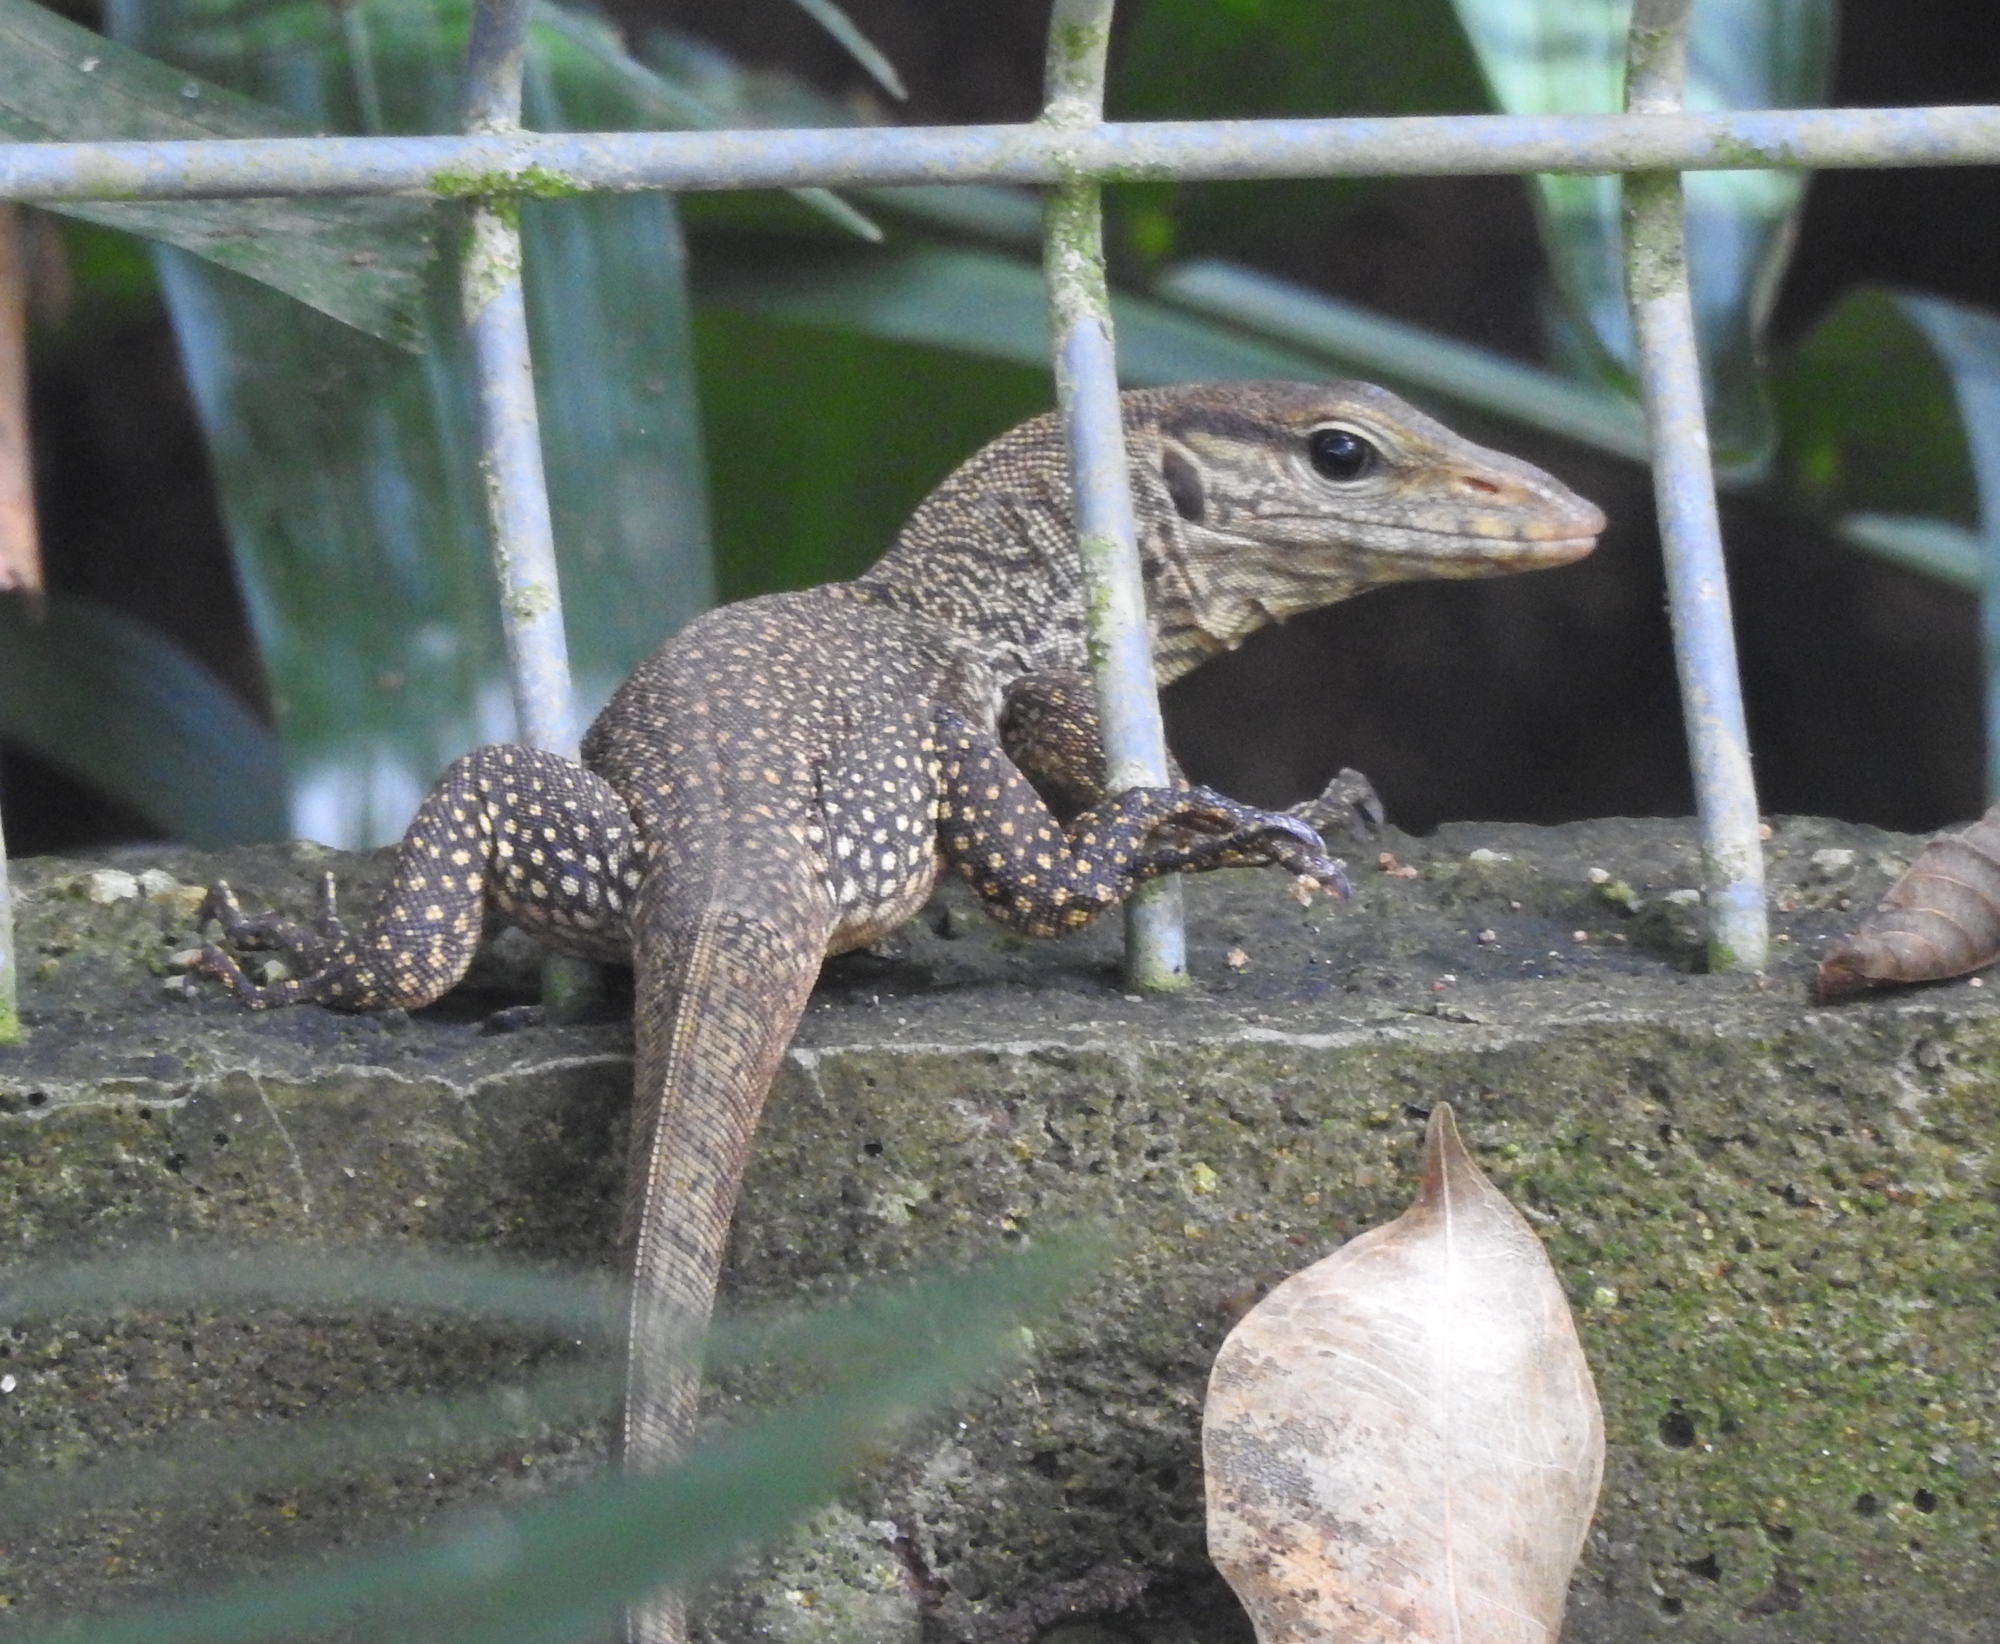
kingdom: Animalia
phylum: Chordata
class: Squamata
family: Varanidae
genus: Varanus
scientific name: Varanus nebulosus
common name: Clouded monitor
